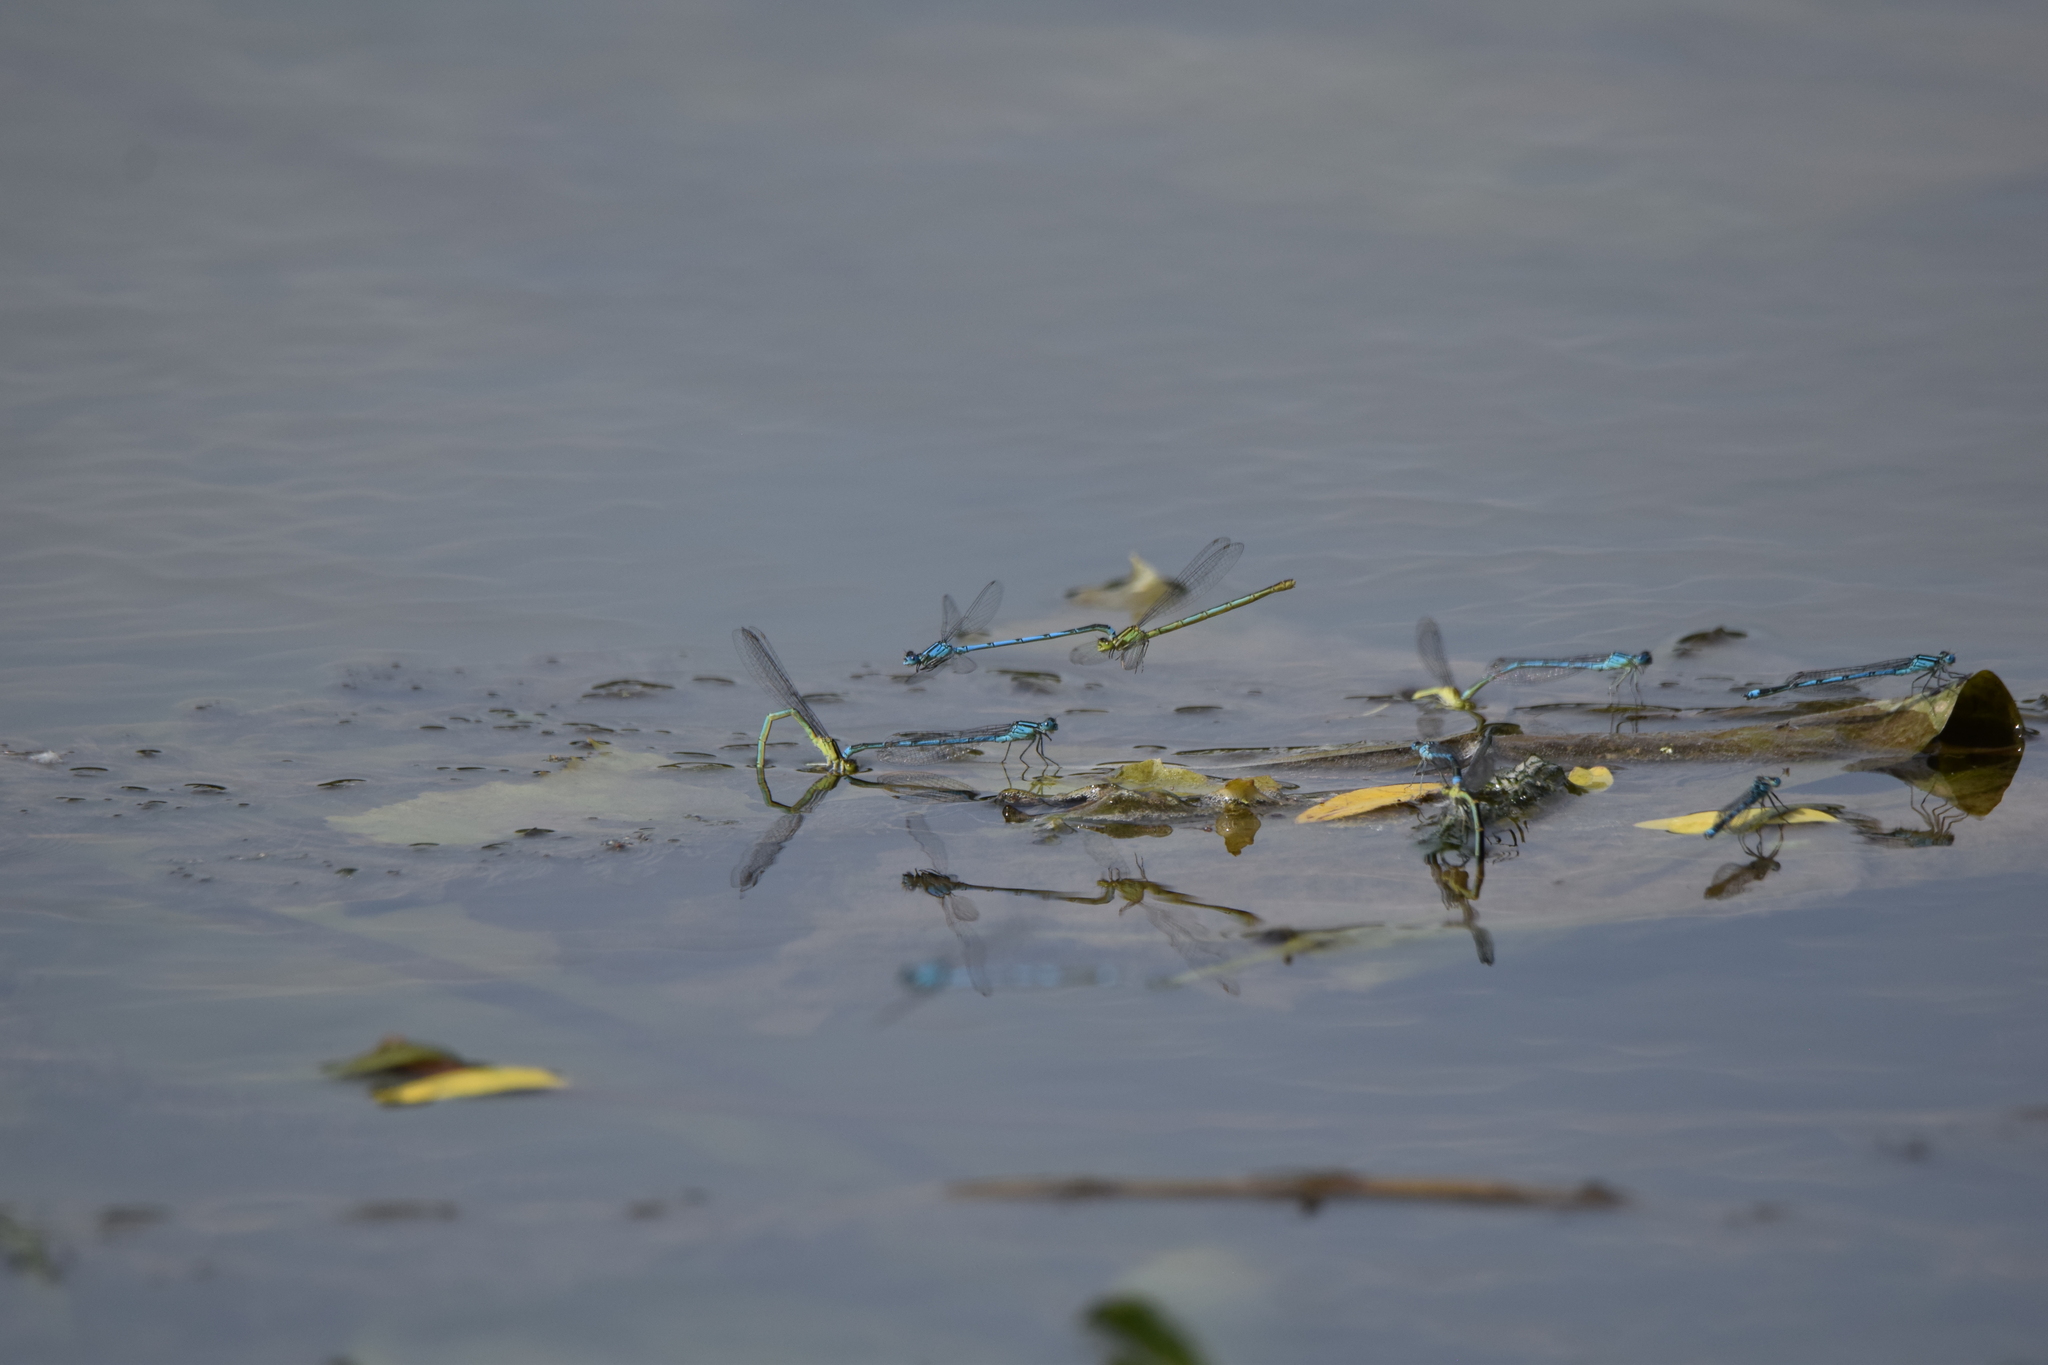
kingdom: Animalia
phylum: Arthropoda
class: Insecta
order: Odonata
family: Coenagrionidae
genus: Erythromma
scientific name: Erythromma lindenii
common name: Blue-eye
